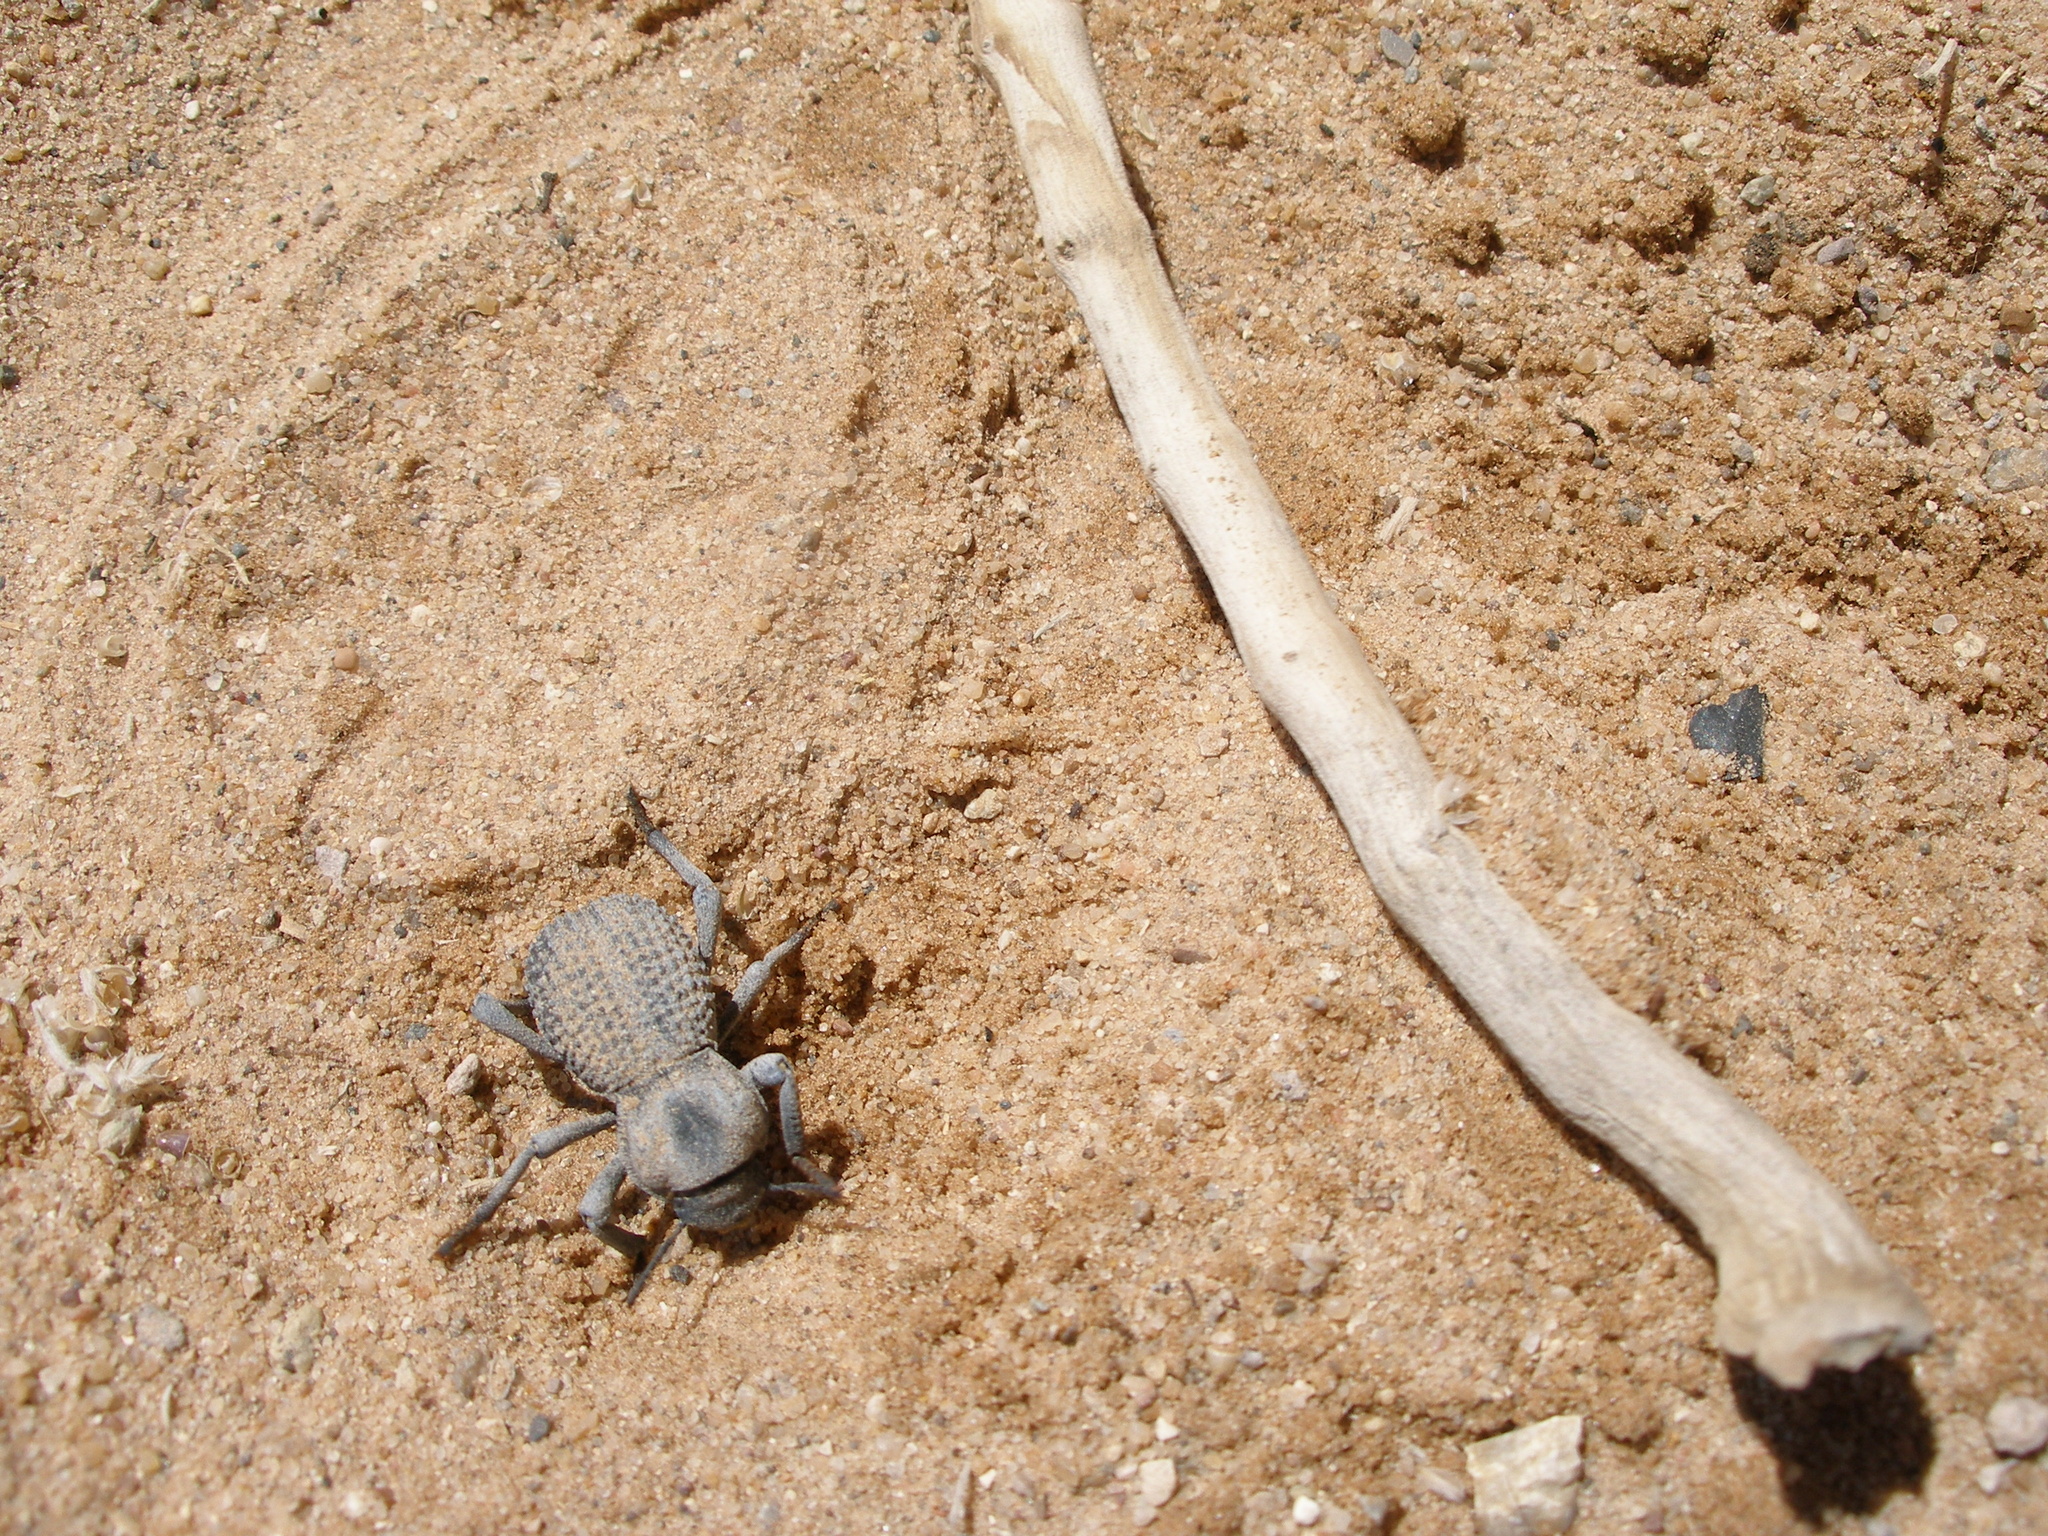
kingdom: Animalia
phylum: Arthropoda
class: Insecta
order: Coleoptera
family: Tenebrionidae
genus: Asbolus
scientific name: Asbolus verrucosus
